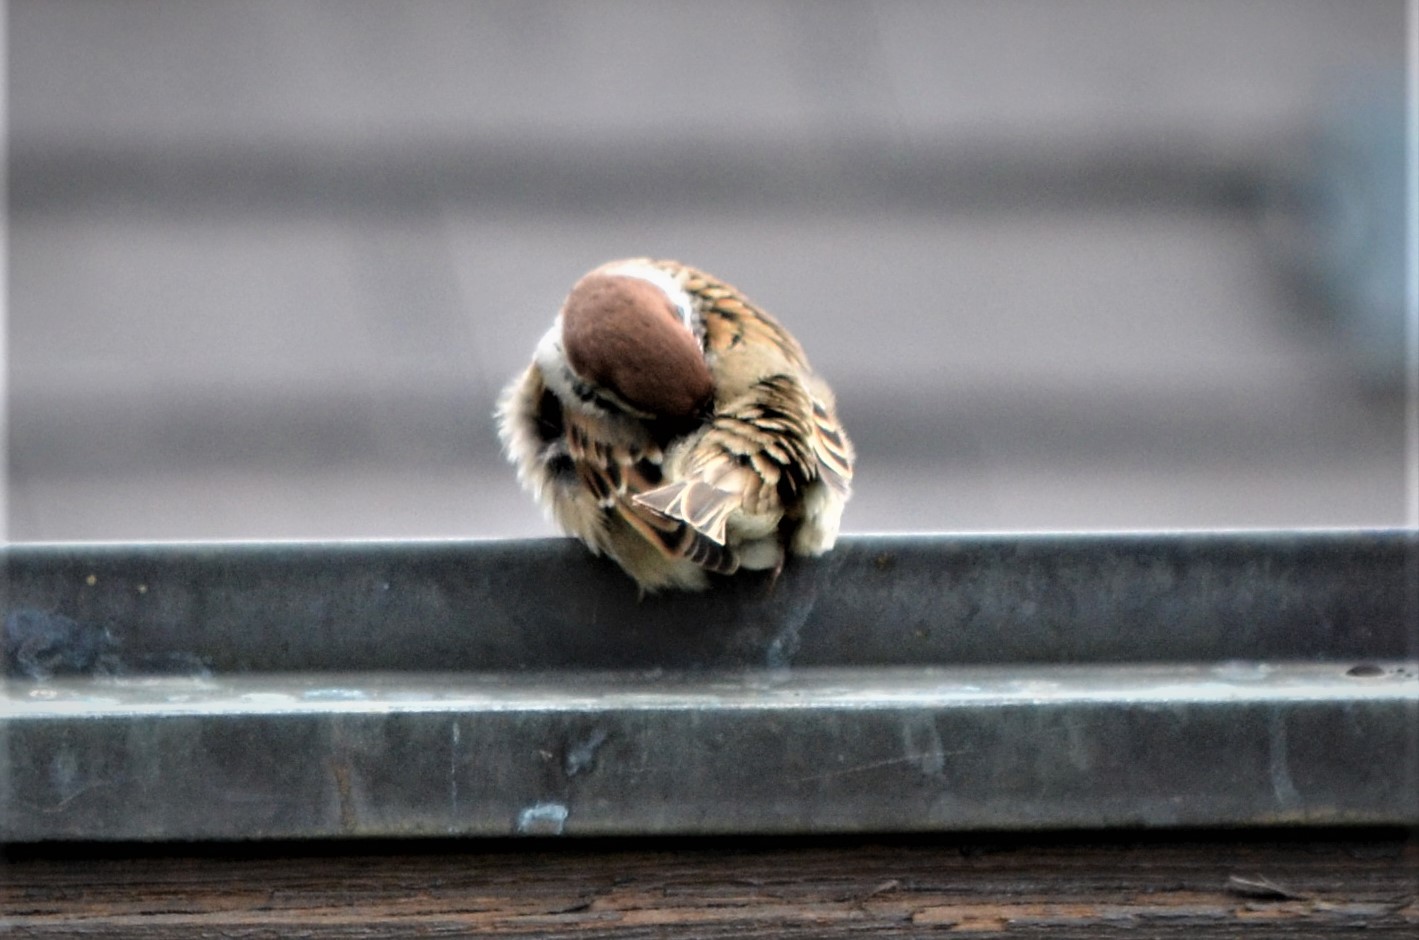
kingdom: Animalia
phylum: Chordata
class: Aves
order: Passeriformes
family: Passeridae
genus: Passer
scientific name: Passer montanus
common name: Eurasian tree sparrow
